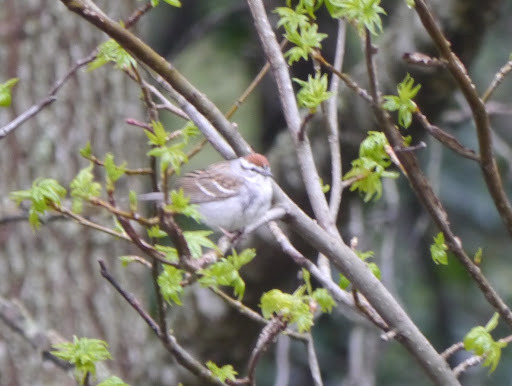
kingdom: Animalia
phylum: Chordata
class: Aves
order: Passeriformes
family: Passerellidae
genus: Spizella
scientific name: Spizella passerina
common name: Chipping sparrow
